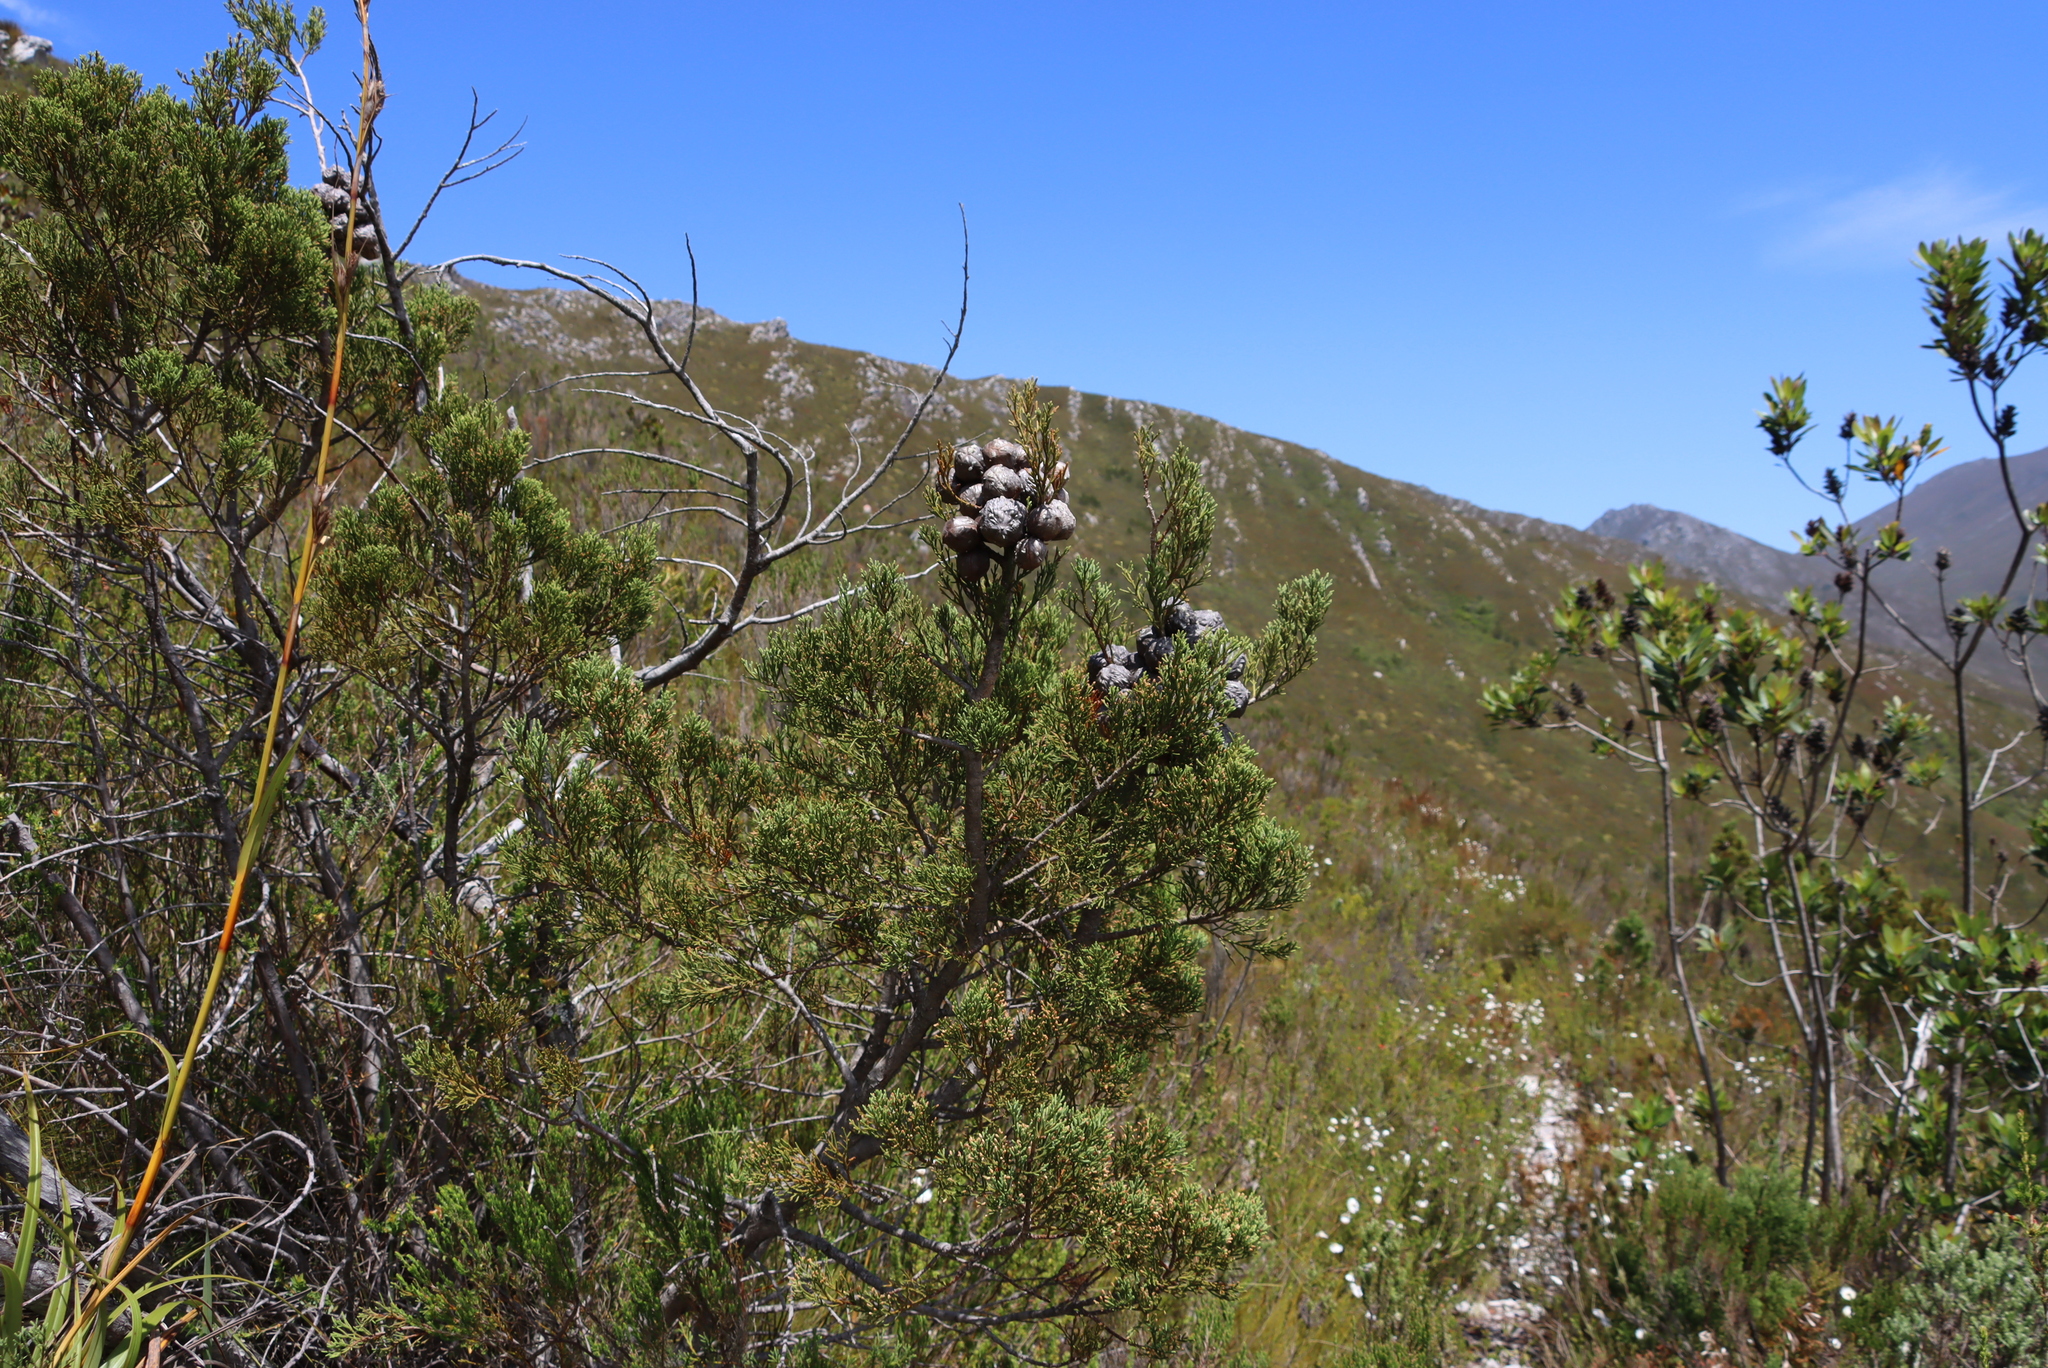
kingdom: Plantae
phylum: Tracheophyta
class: Pinopsida
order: Pinales
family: Cupressaceae
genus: Widdringtonia
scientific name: Widdringtonia nodiflora
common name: Cape cypress
